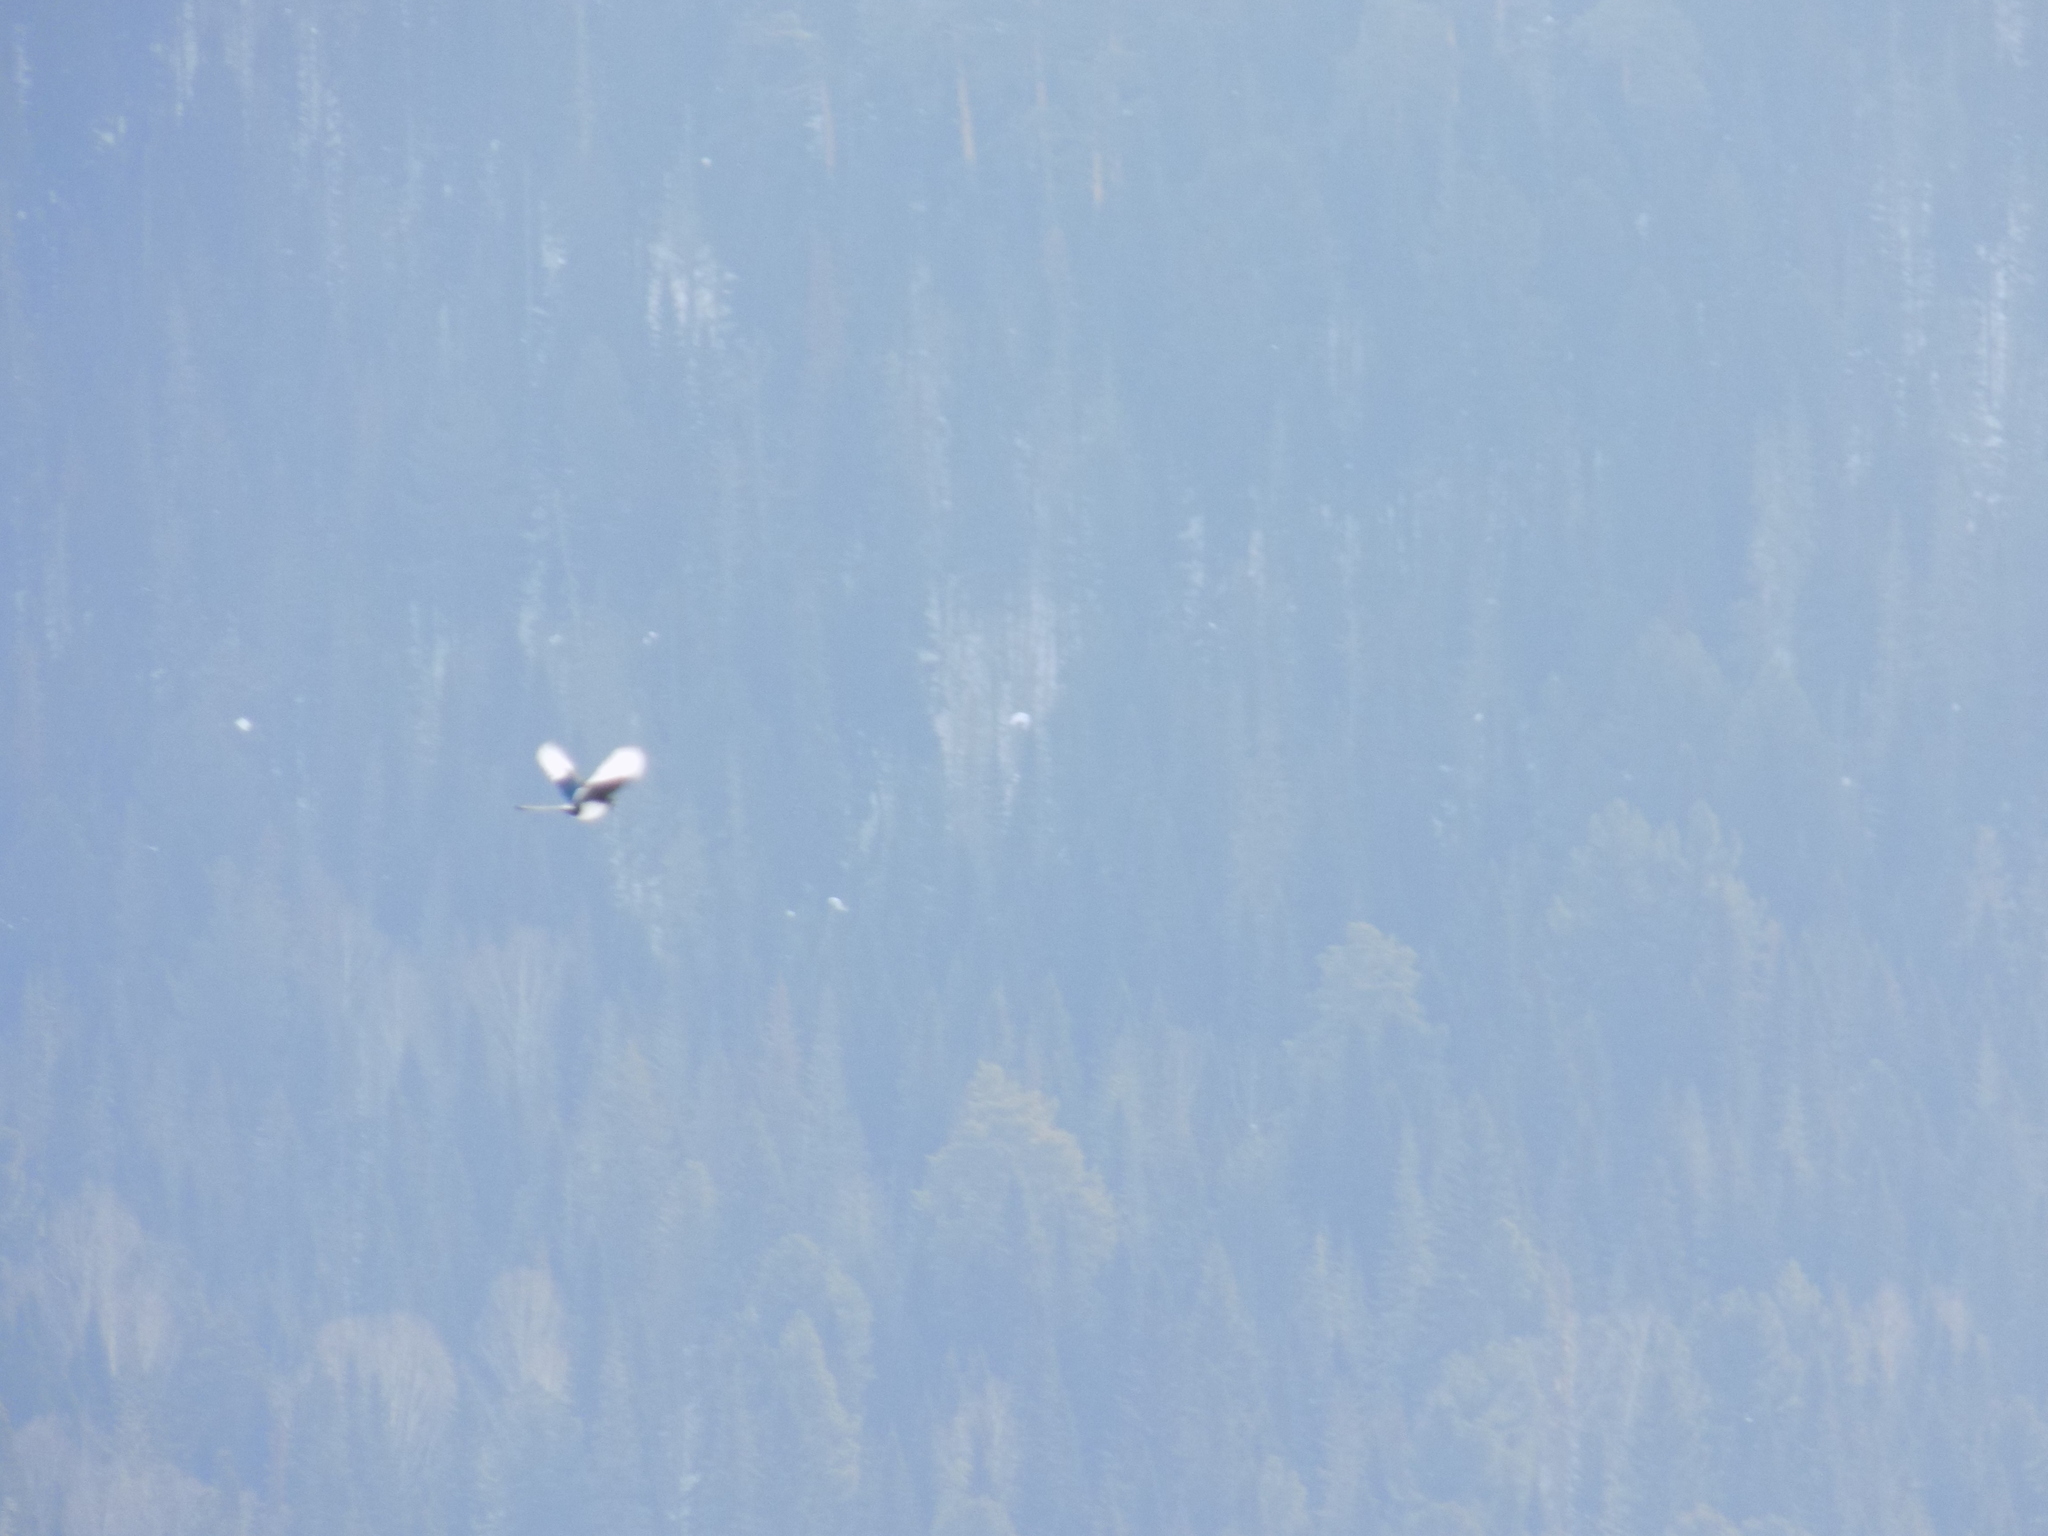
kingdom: Animalia
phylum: Chordata
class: Aves
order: Passeriformes
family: Corvidae
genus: Pica
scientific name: Pica pica
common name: Eurasian magpie
